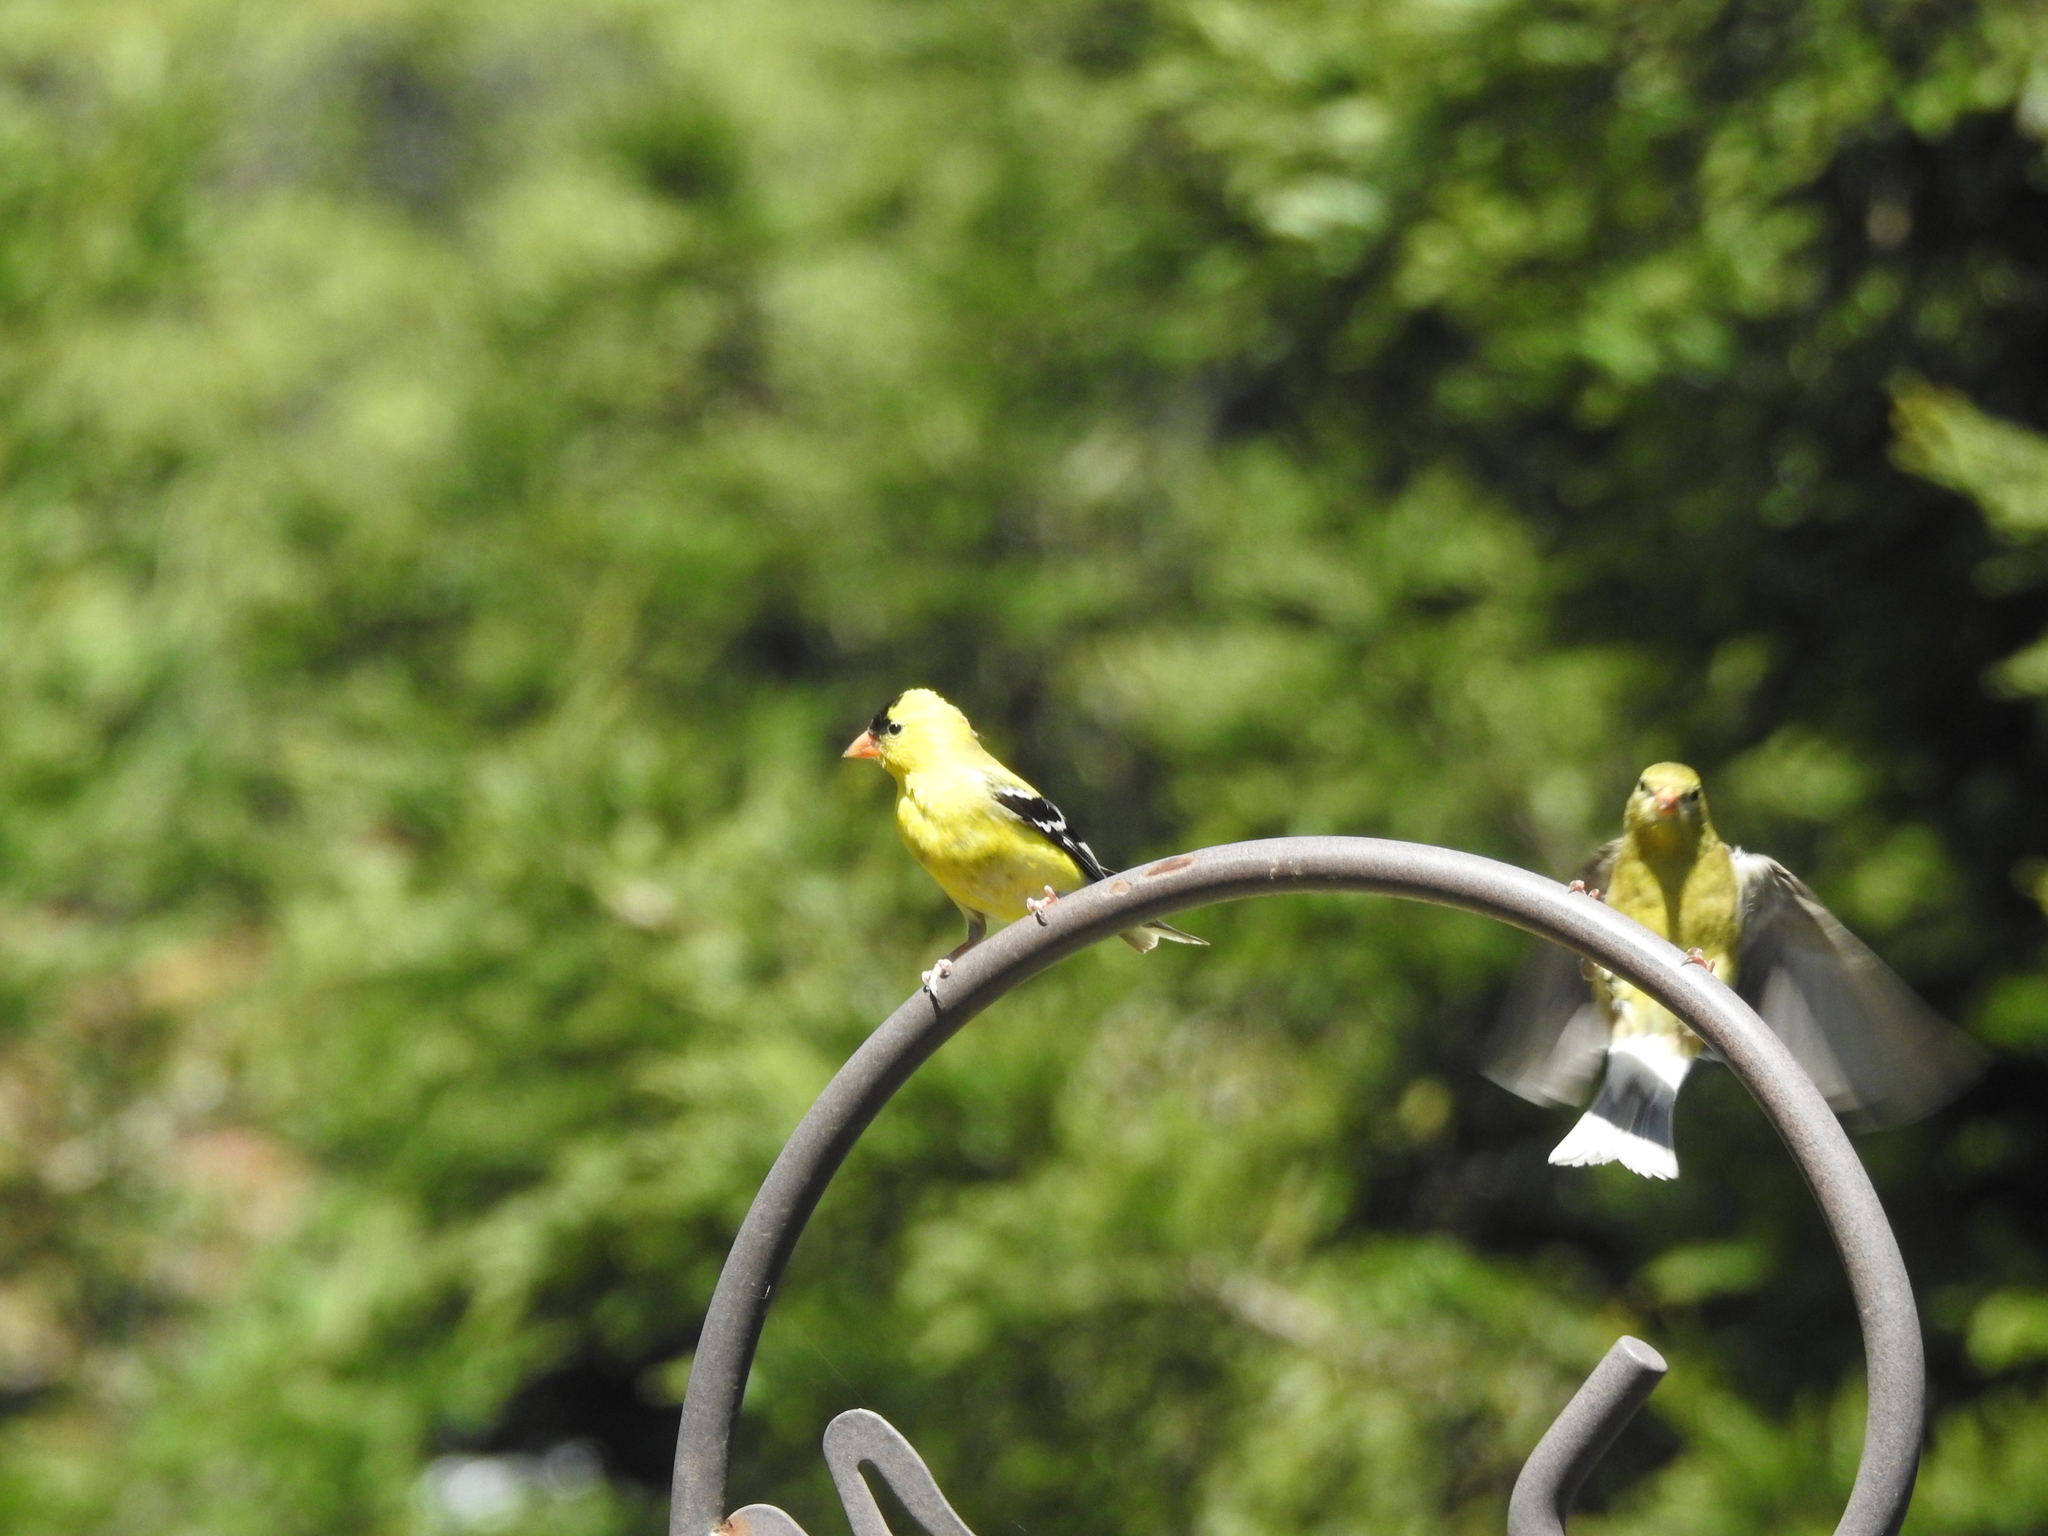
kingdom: Animalia
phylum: Chordata
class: Aves
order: Passeriformes
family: Fringillidae
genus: Spinus
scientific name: Spinus tristis
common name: American goldfinch
